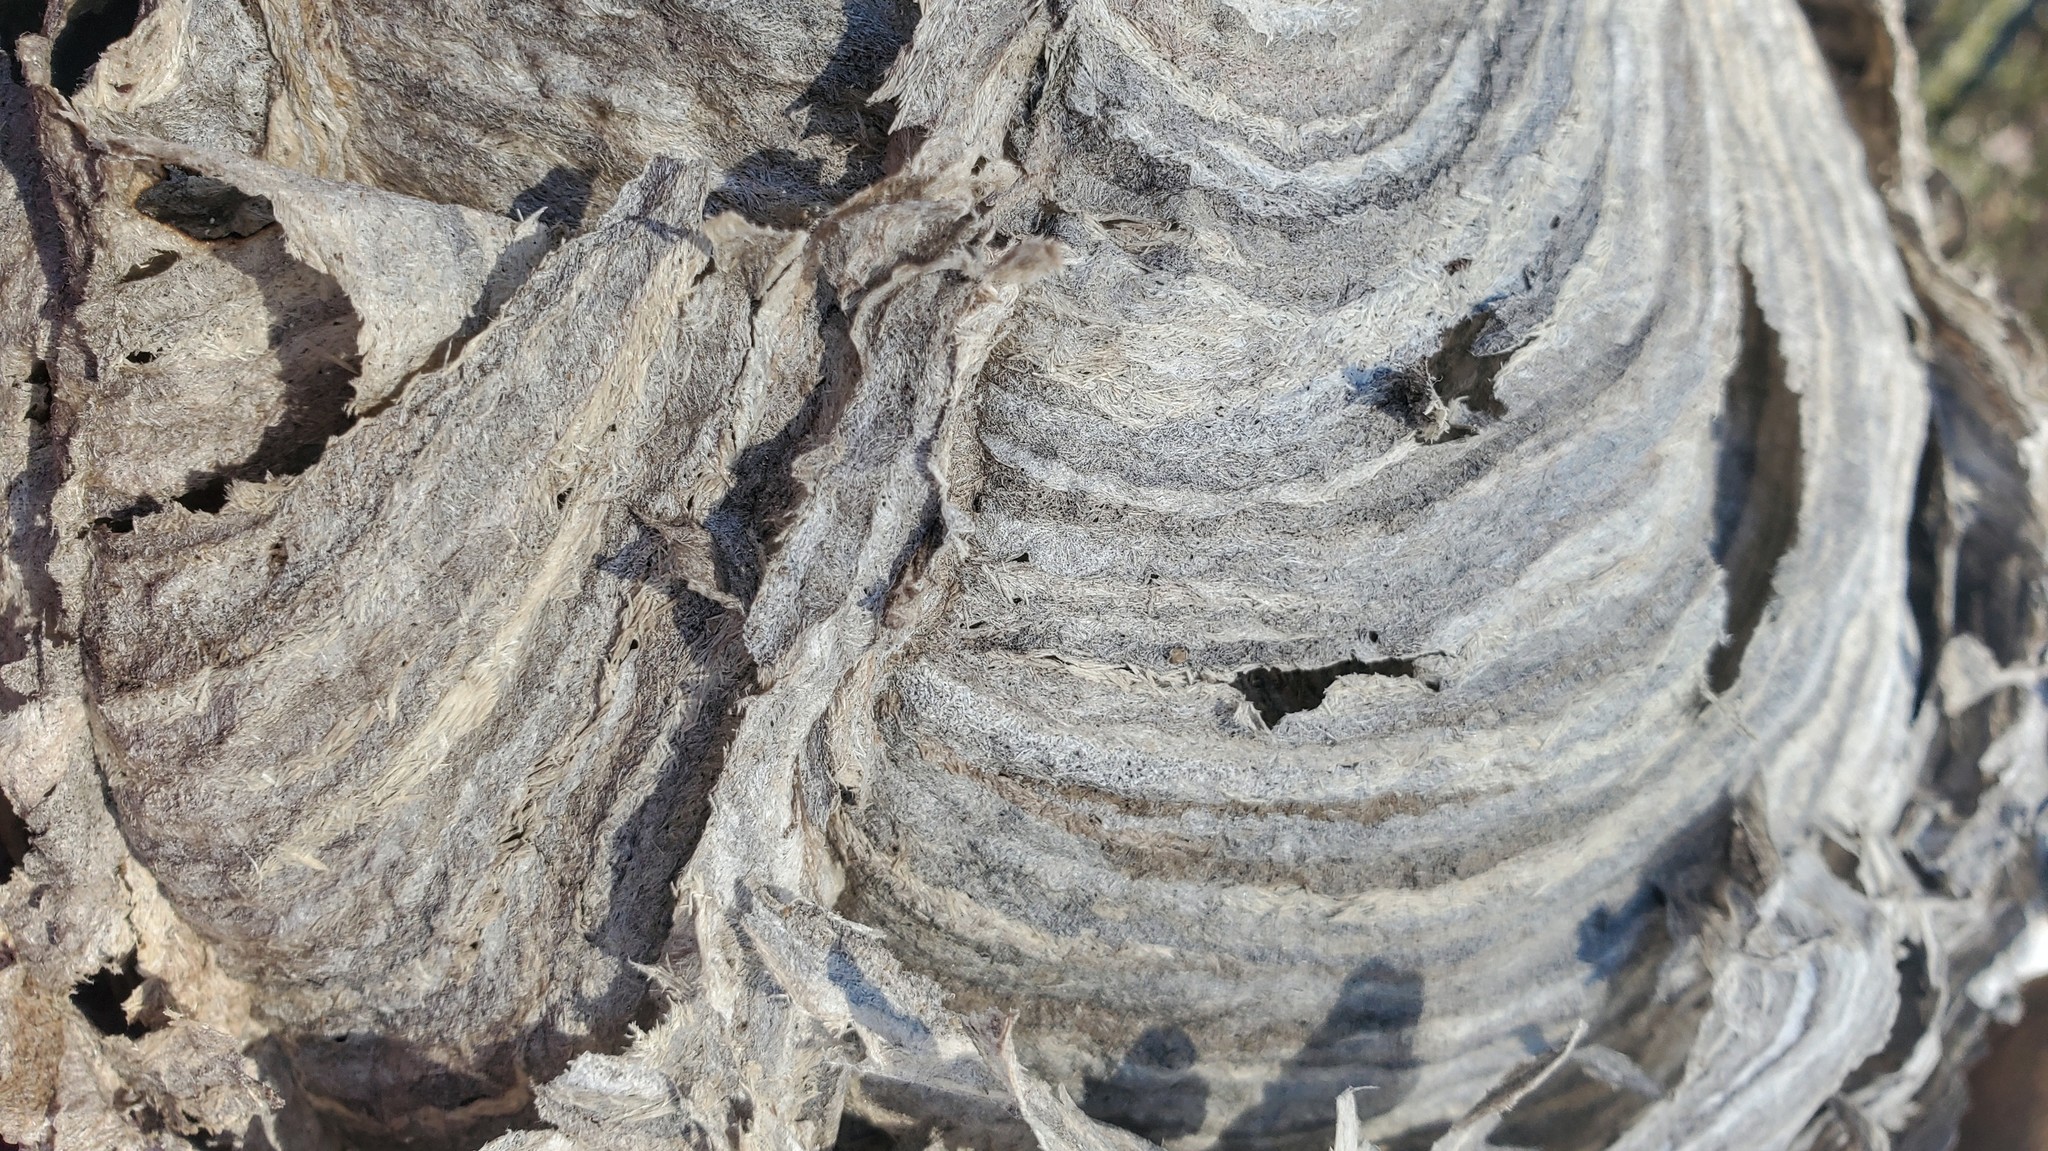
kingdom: Animalia
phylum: Arthropoda
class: Insecta
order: Hymenoptera
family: Vespidae
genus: Dolichovespula
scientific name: Dolichovespula
